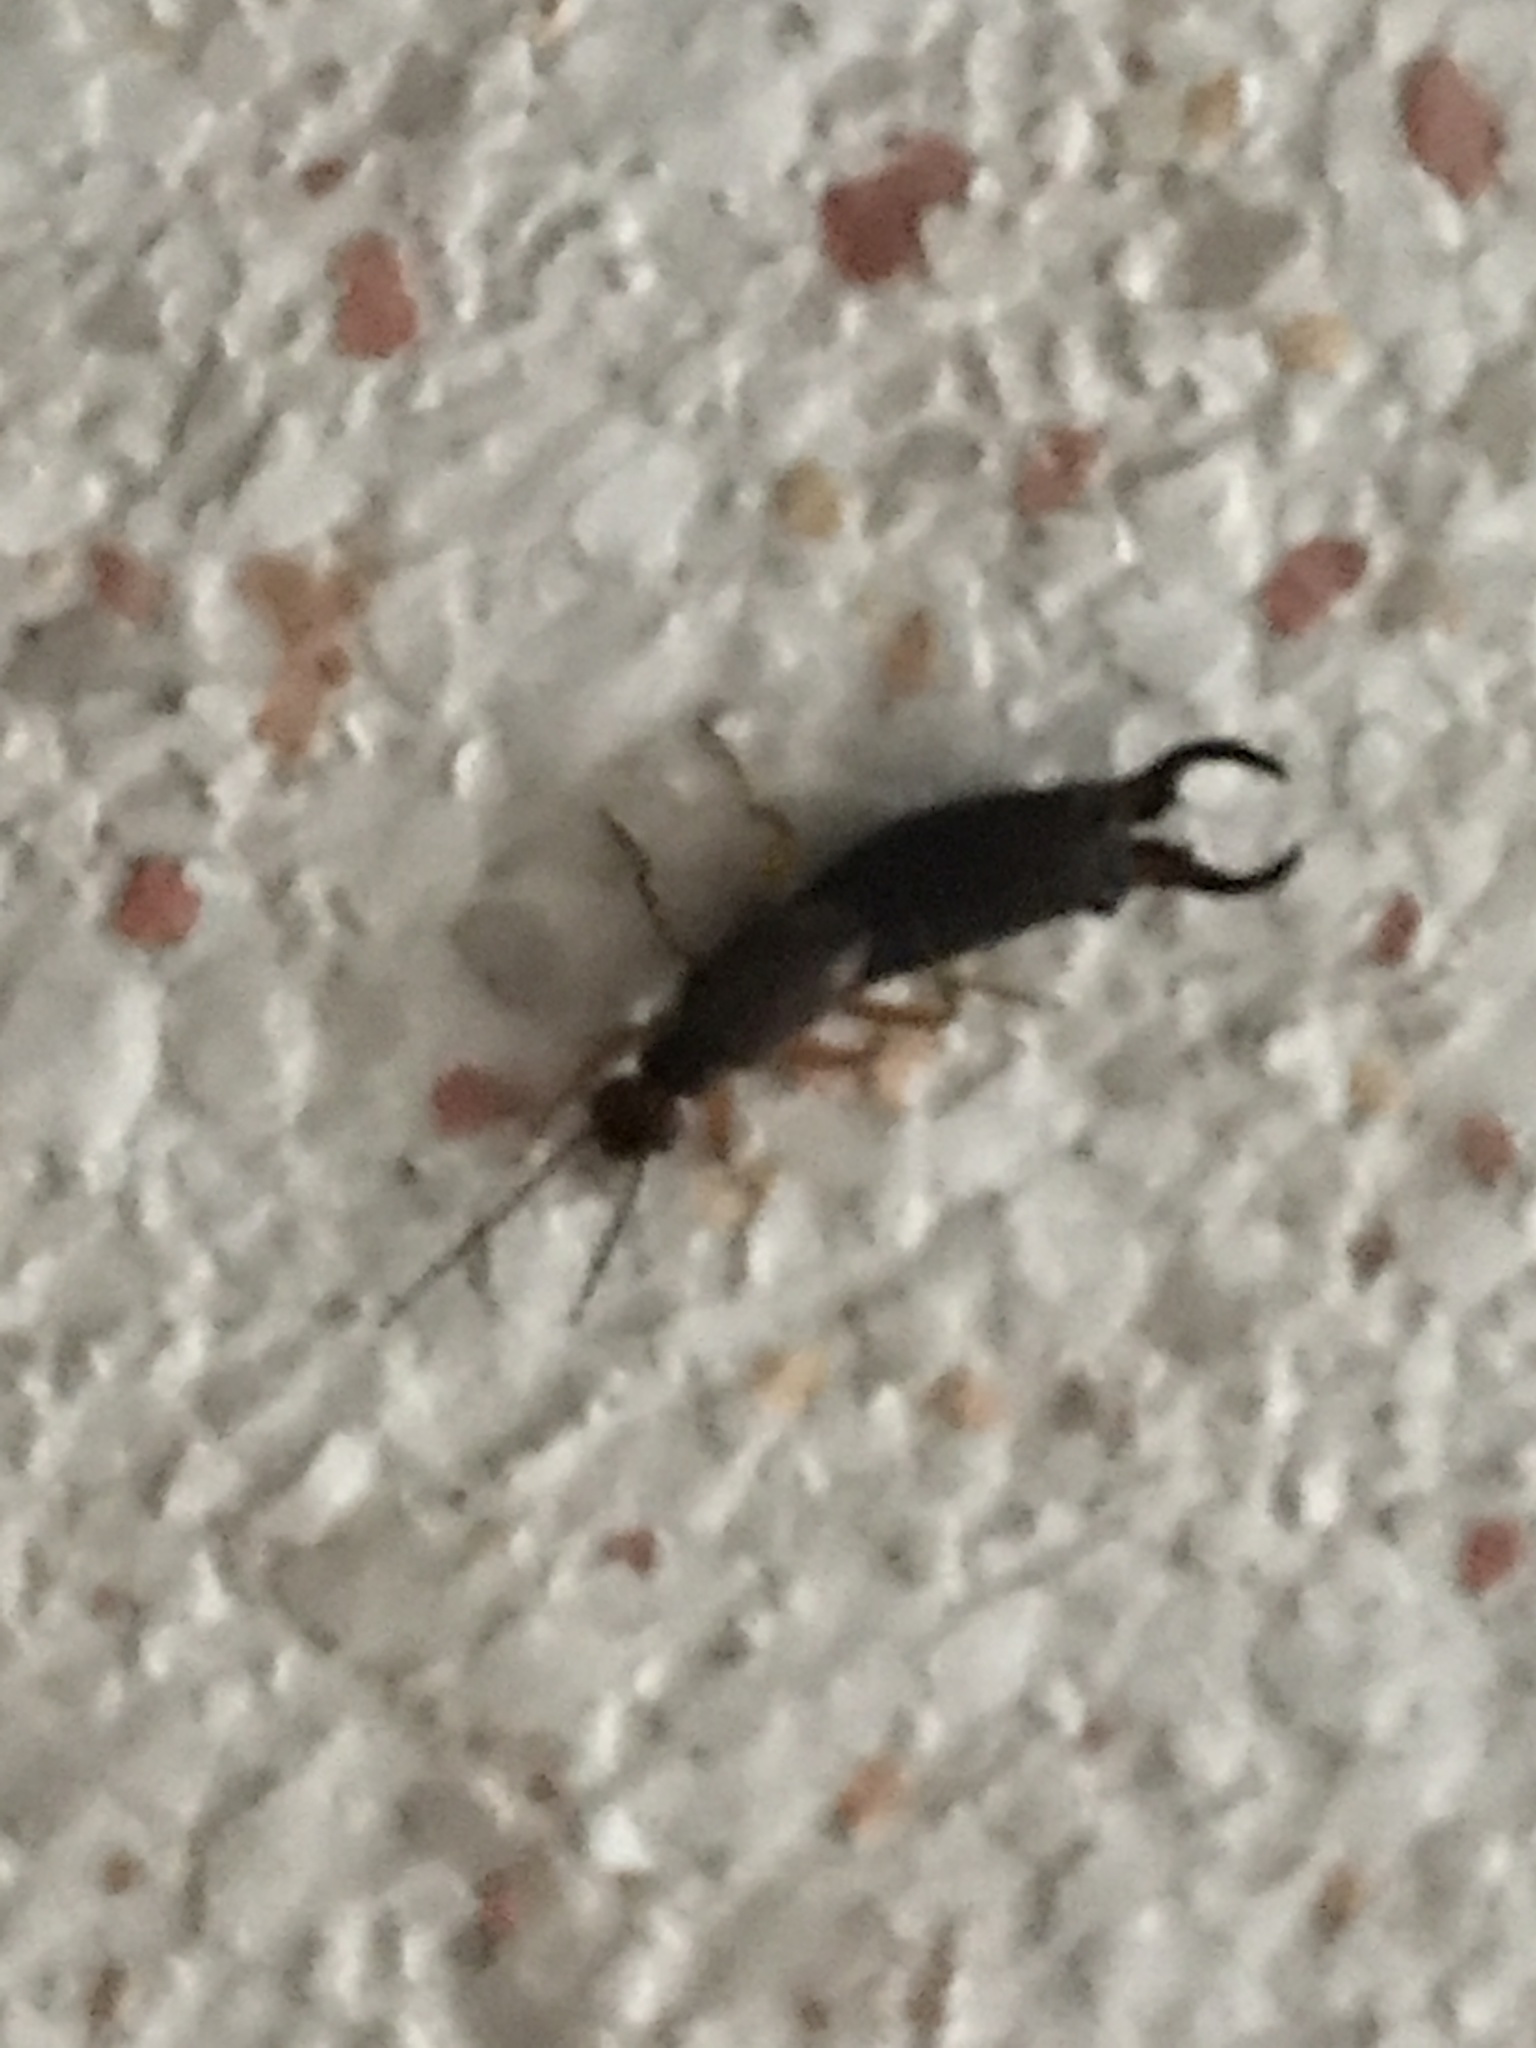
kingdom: Animalia
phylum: Arthropoda
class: Insecta
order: Dermaptera
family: Forficulidae
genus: Forficula
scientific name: Forficula
